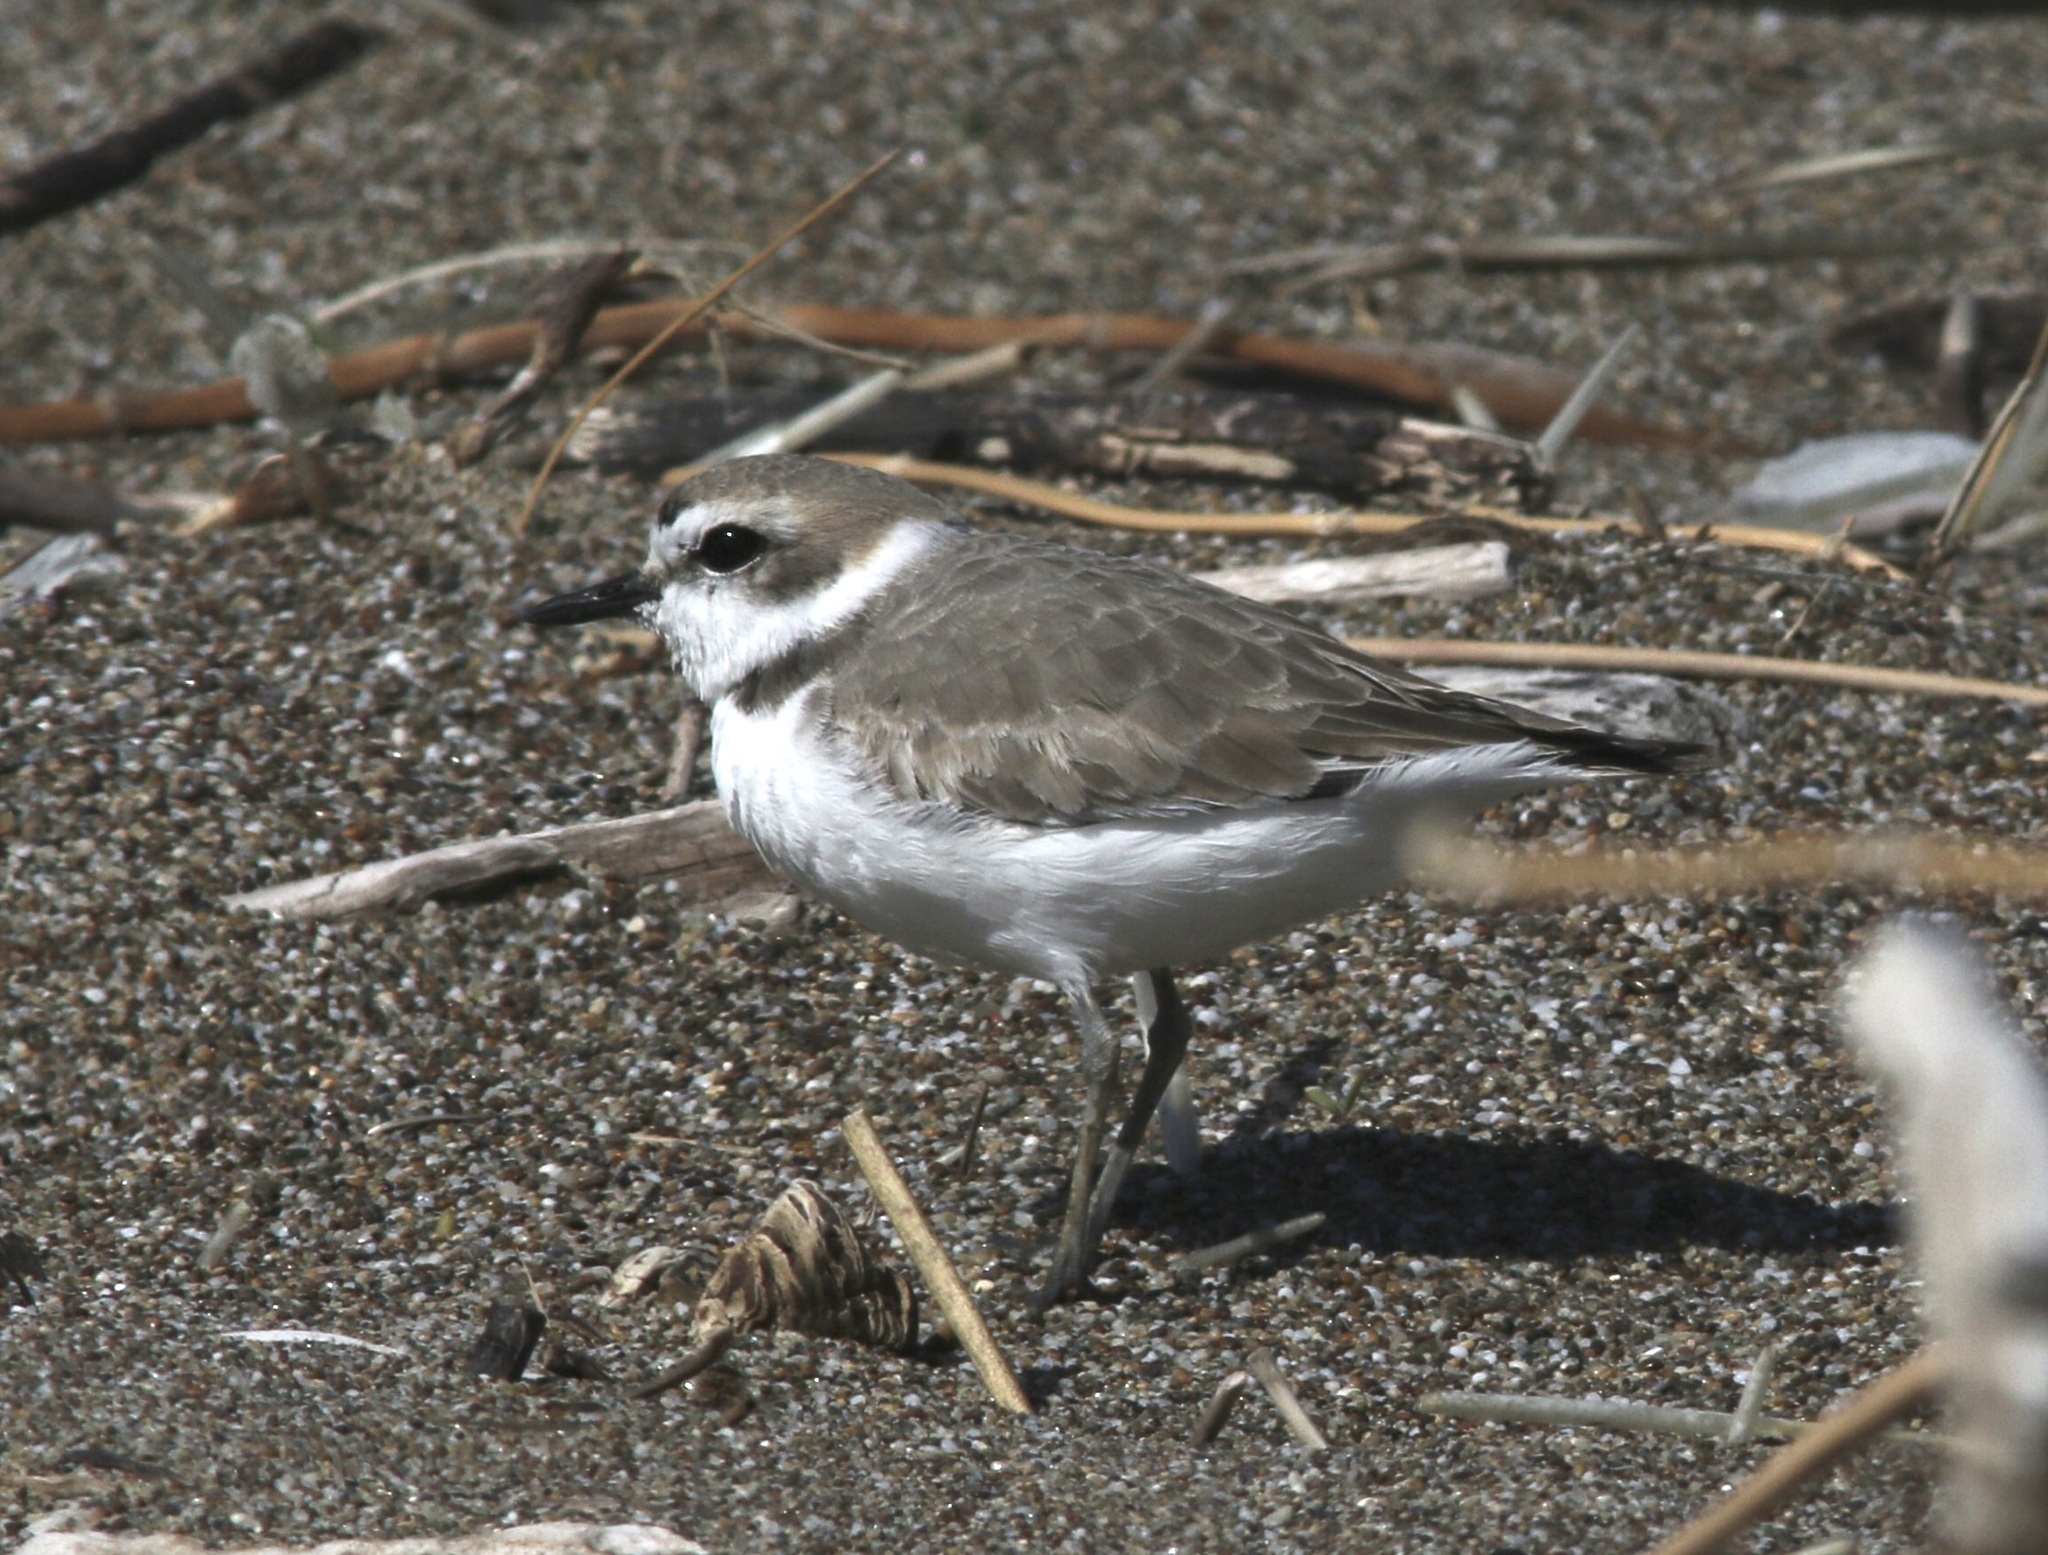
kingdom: Animalia
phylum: Chordata
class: Aves
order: Charadriiformes
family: Charadriidae
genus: Anarhynchus
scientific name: Anarhynchus
